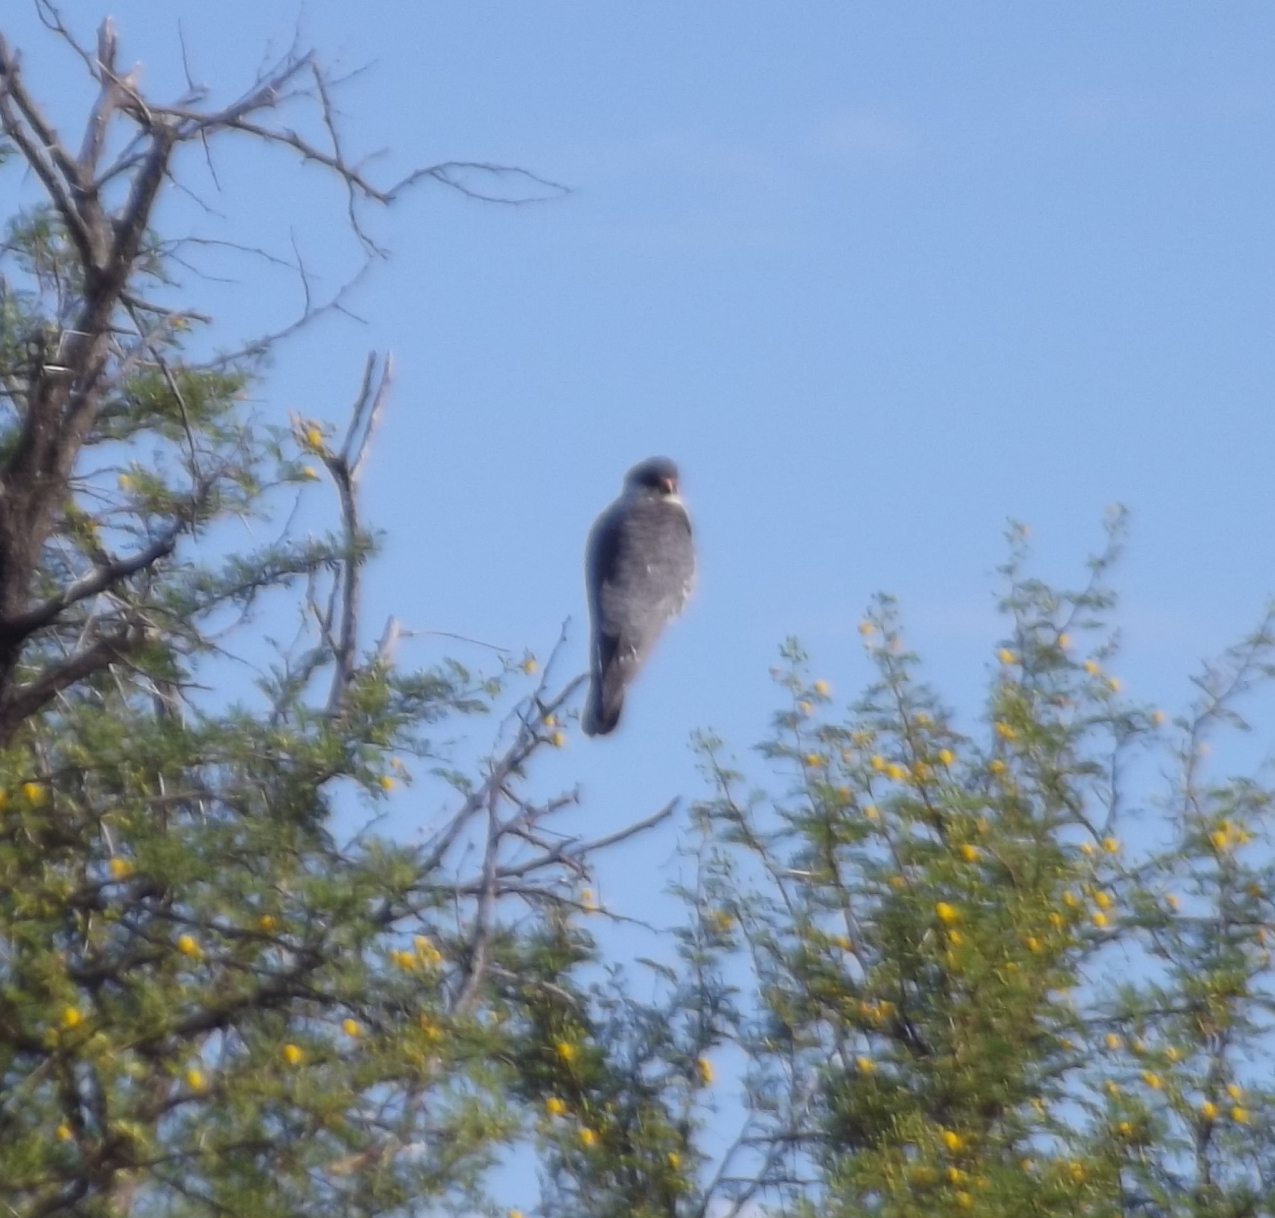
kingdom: Animalia
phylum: Chordata
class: Aves
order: Falconiformes
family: Falconidae
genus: Falco
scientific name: Falco amurensis
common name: Amur falcon
